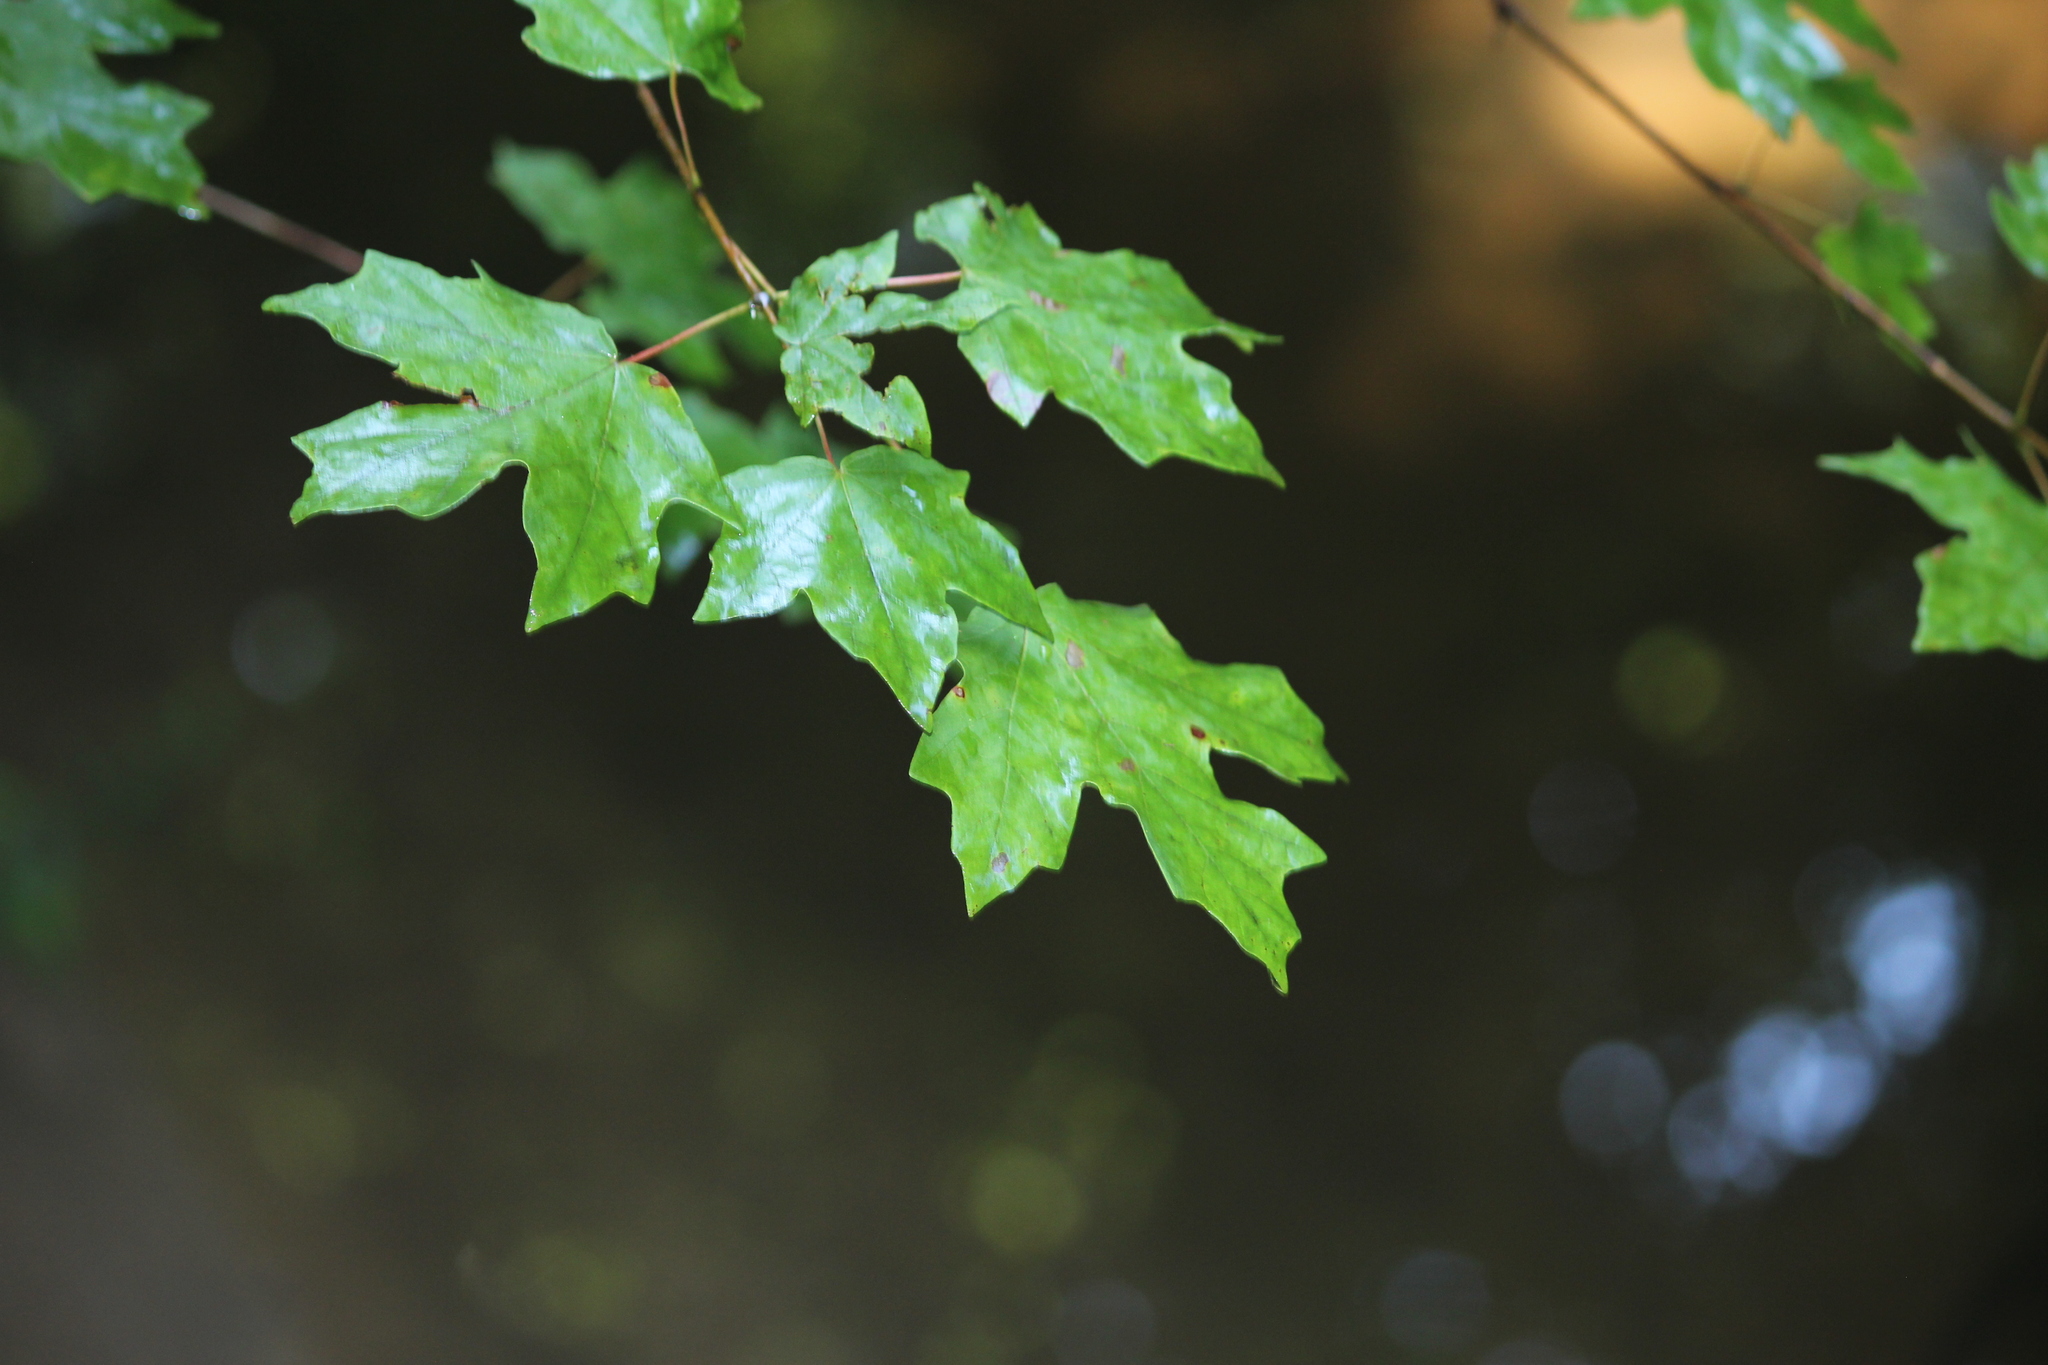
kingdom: Plantae
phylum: Tracheophyta
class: Magnoliopsida
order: Sapindales
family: Sapindaceae
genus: Acer
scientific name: Acer floridanum
